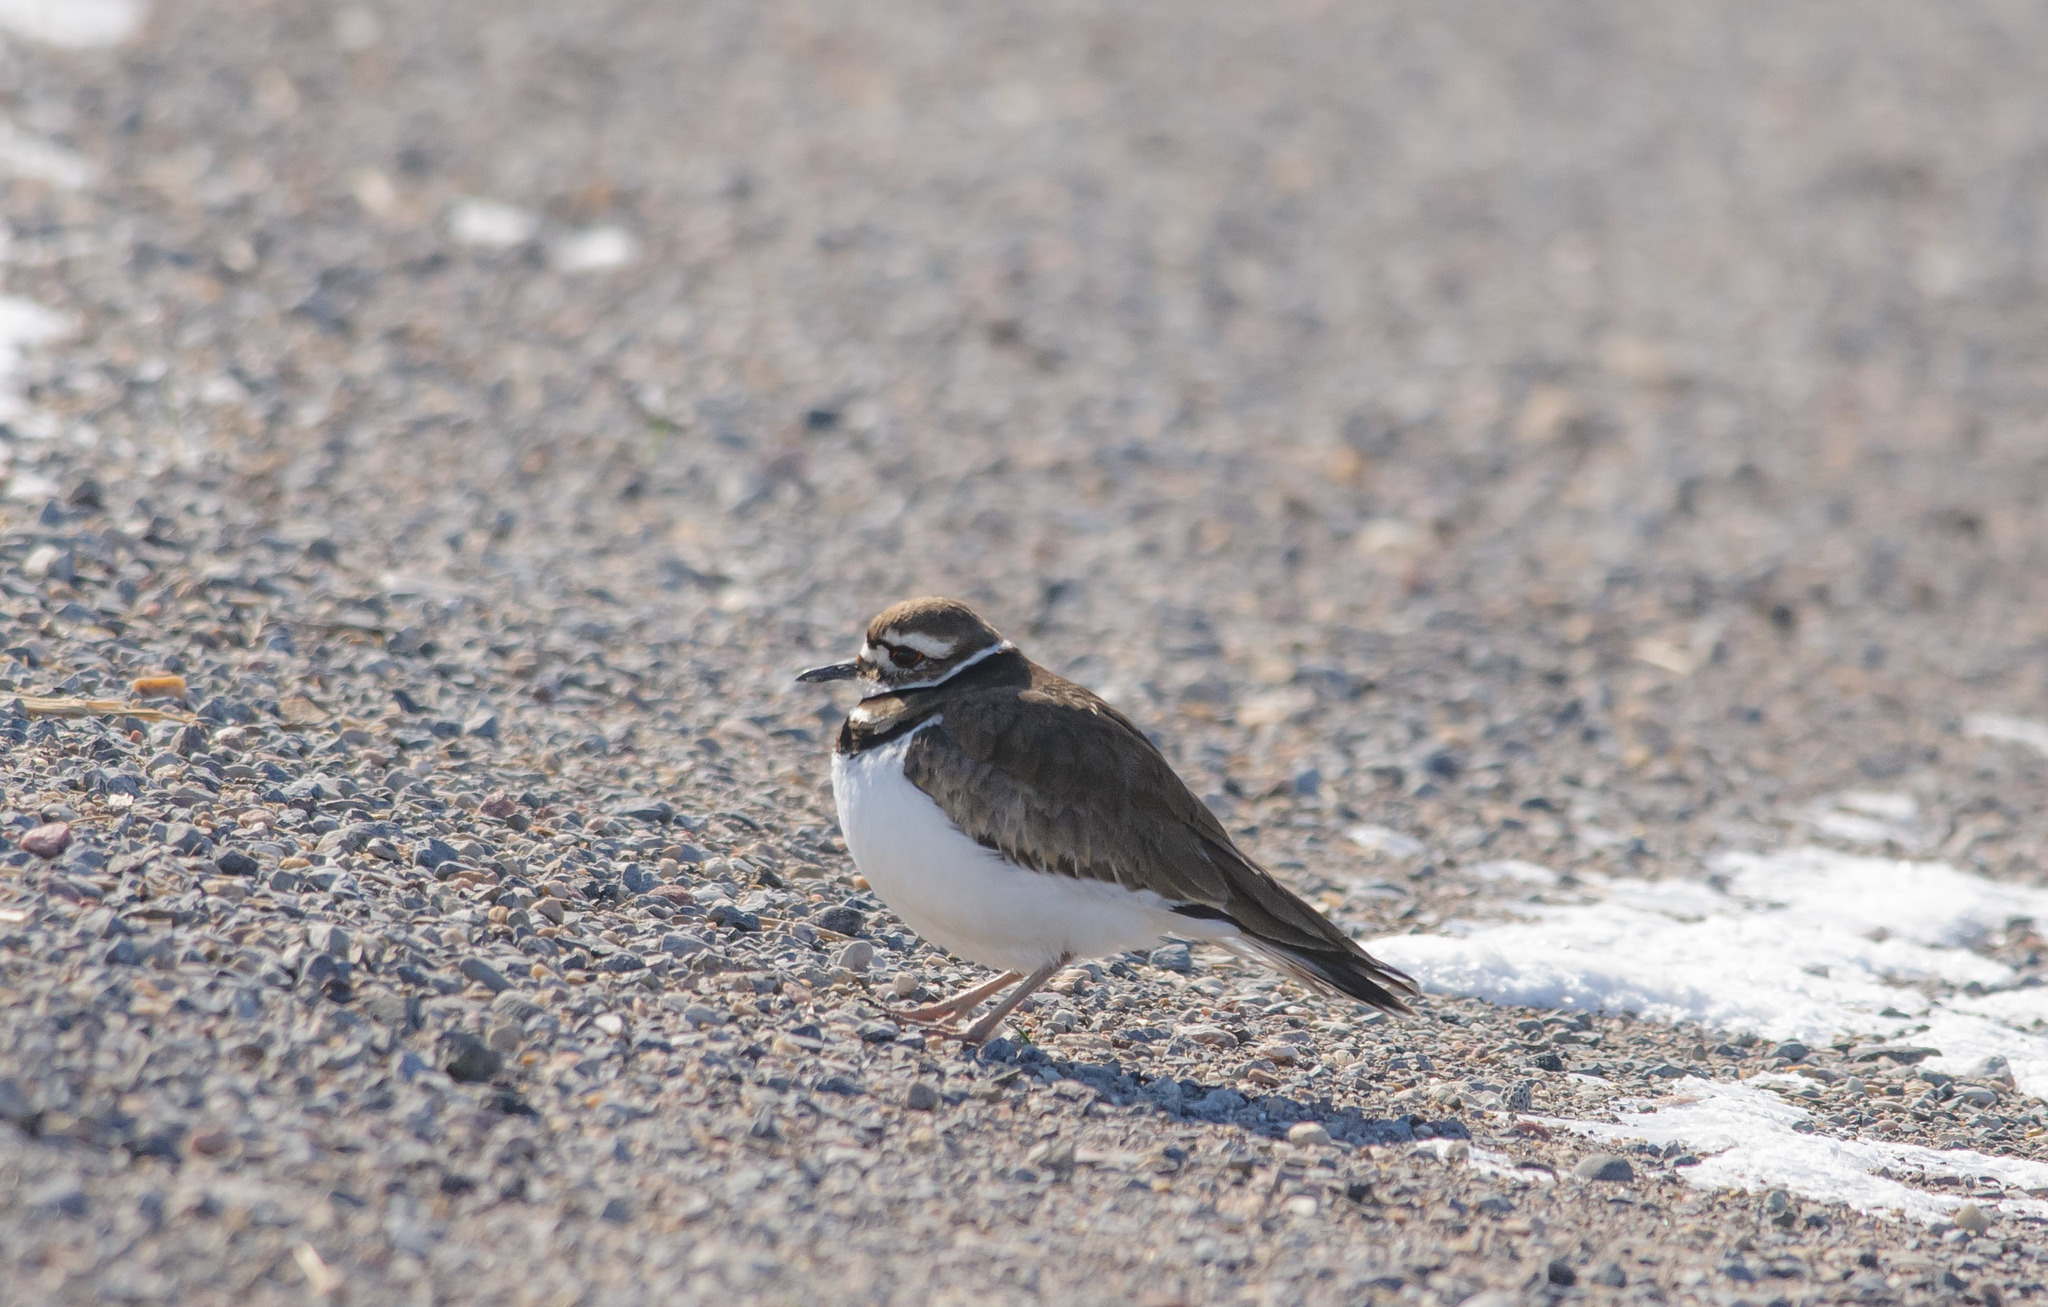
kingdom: Animalia
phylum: Chordata
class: Aves
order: Charadriiformes
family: Charadriidae
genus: Charadrius
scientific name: Charadrius vociferus
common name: Killdeer
